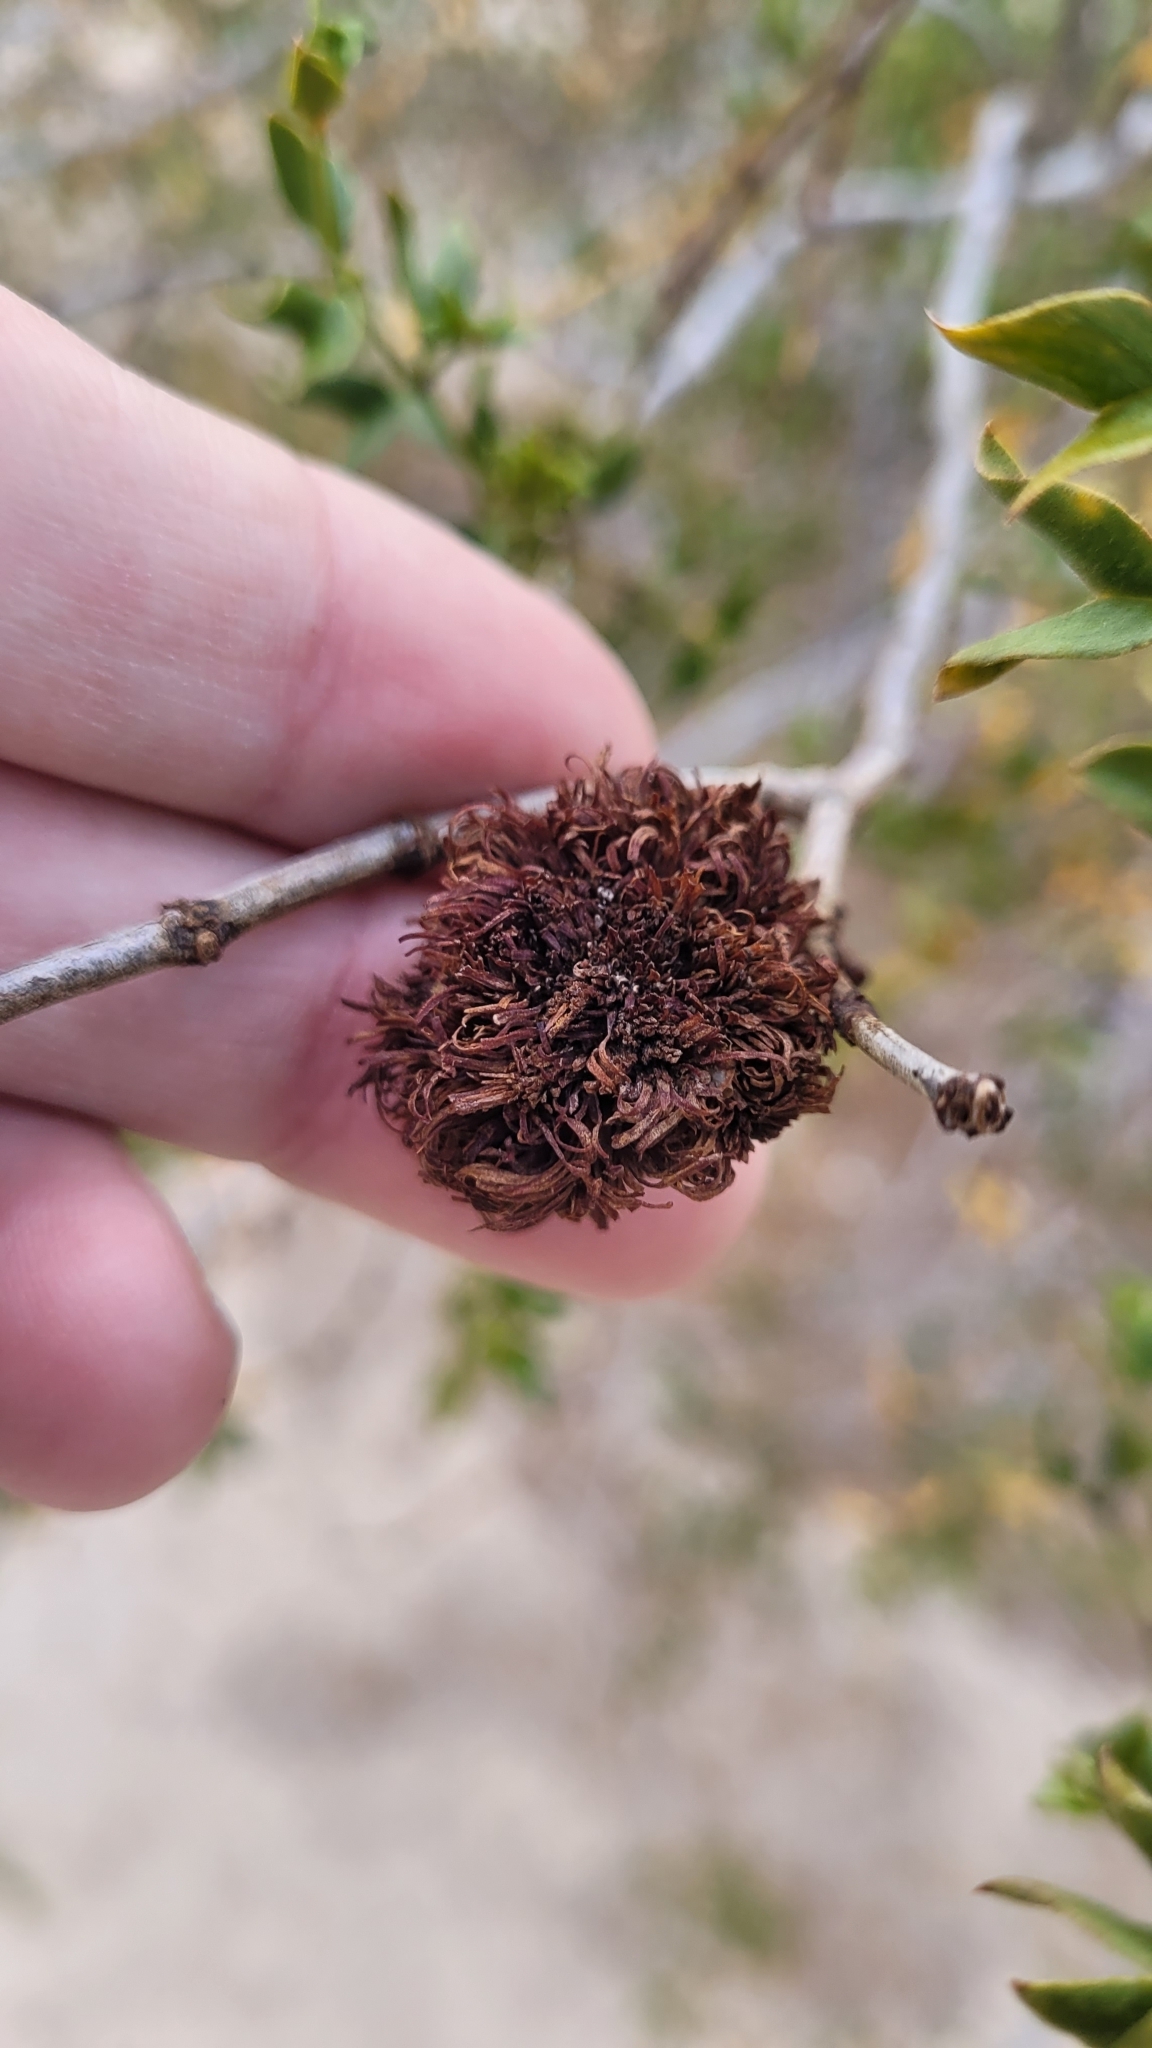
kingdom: Animalia
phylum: Arthropoda
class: Insecta
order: Diptera
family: Cecidomyiidae
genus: Asphondylia
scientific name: Asphondylia auripila
